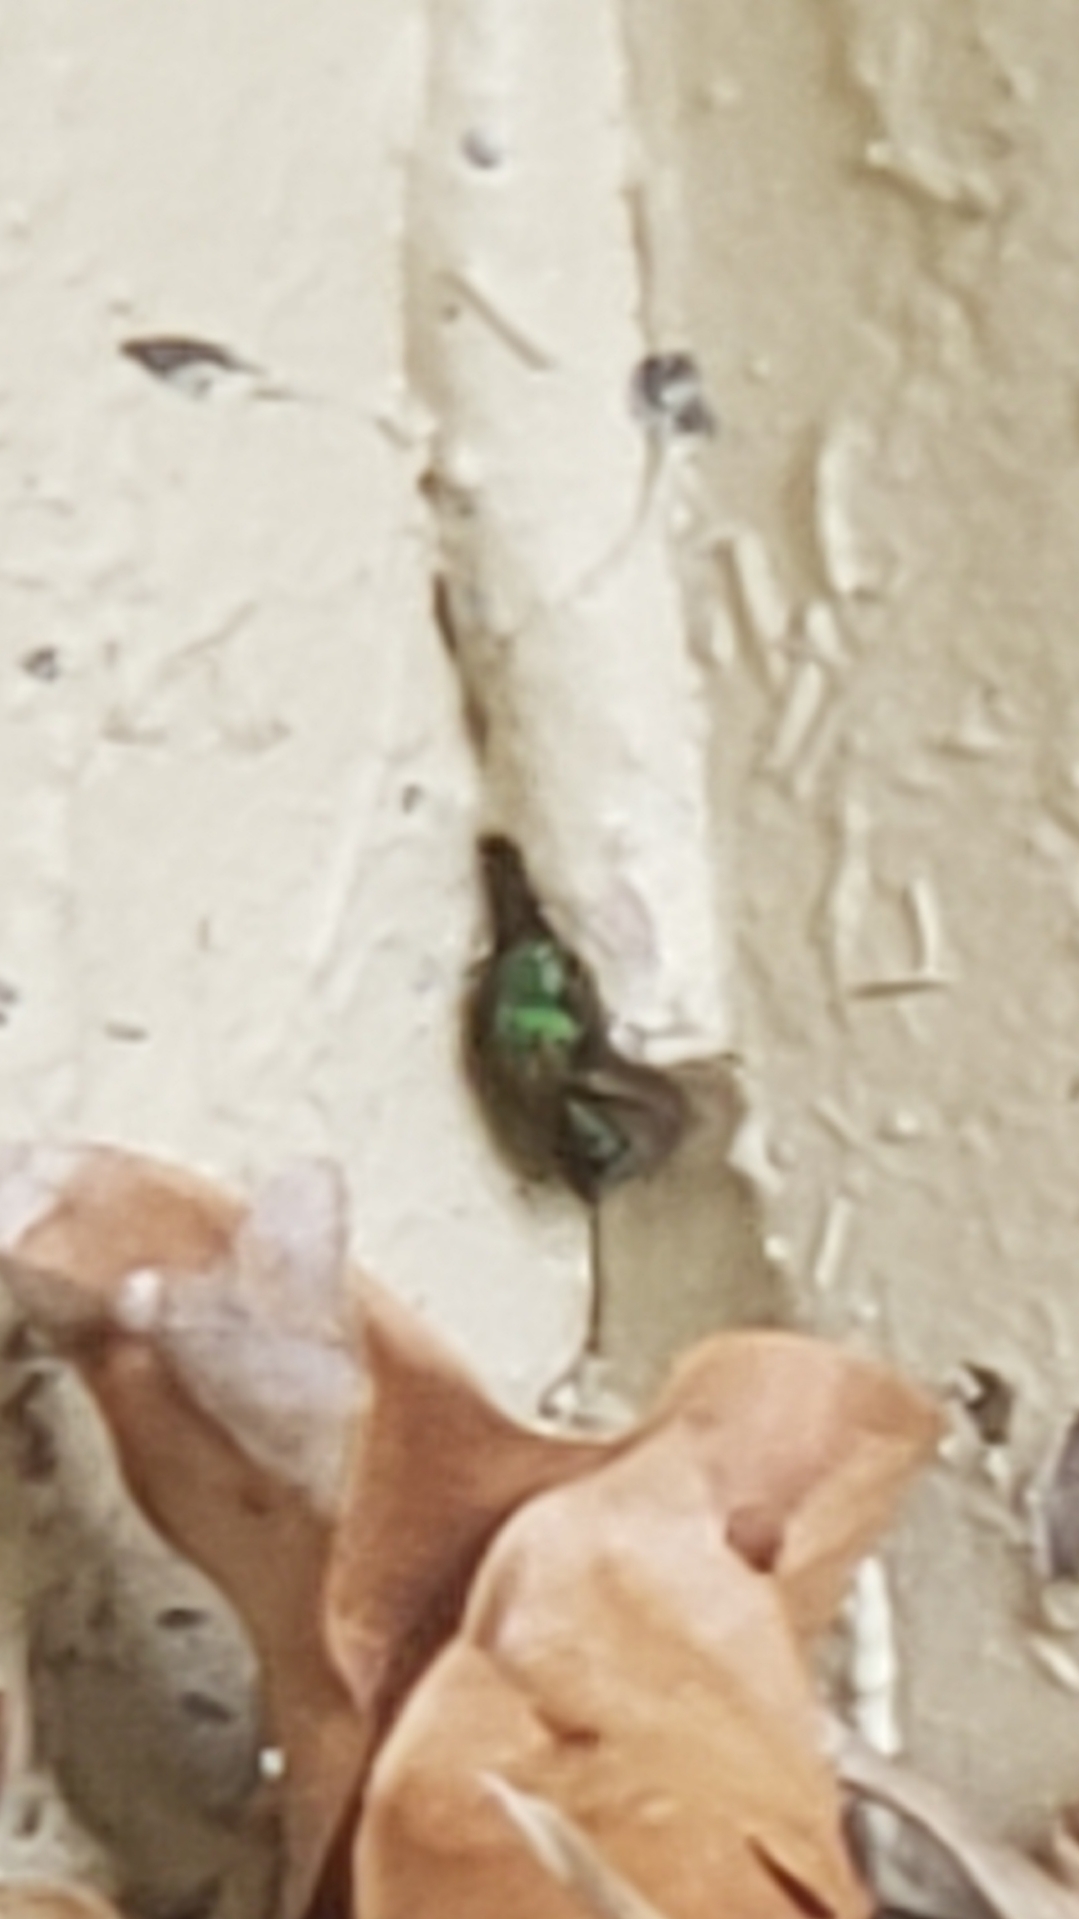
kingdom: Animalia
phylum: Arthropoda
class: Insecta
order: Hymenoptera
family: Halictidae
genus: Agapostemon
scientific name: Agapostemon splendens
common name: Brown-winged striped sweat bee
